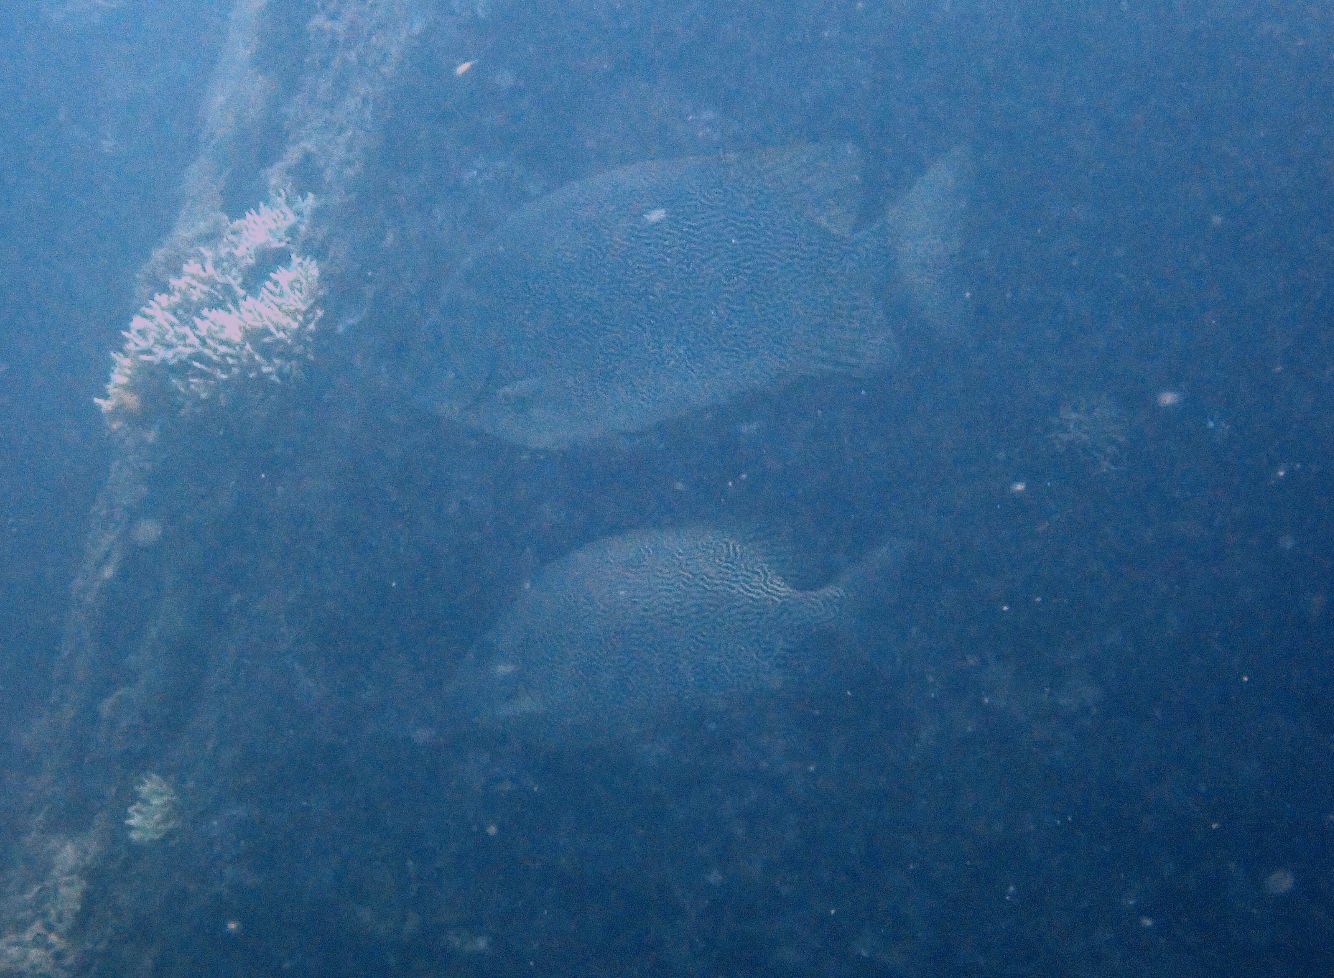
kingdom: Animalia
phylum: Chordata
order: Perciformes
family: Siganidae
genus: Siganus
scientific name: Siganus vermiculatus
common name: Vermiculated spinefoot
